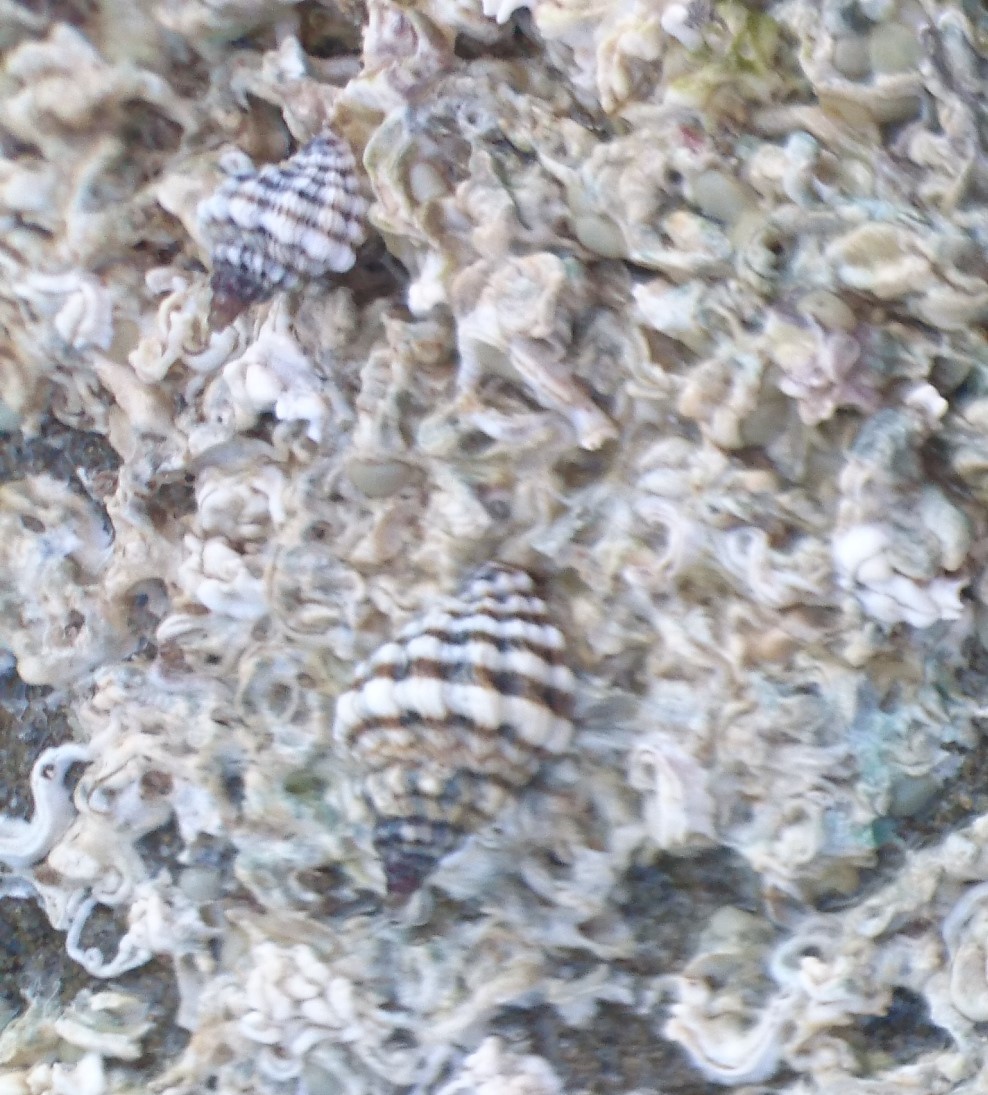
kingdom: Animalia
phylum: Mollusca
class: Gastropoda
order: Neogastropoda
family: Muricidae
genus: Bedeva
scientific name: Bedeva vinosa
